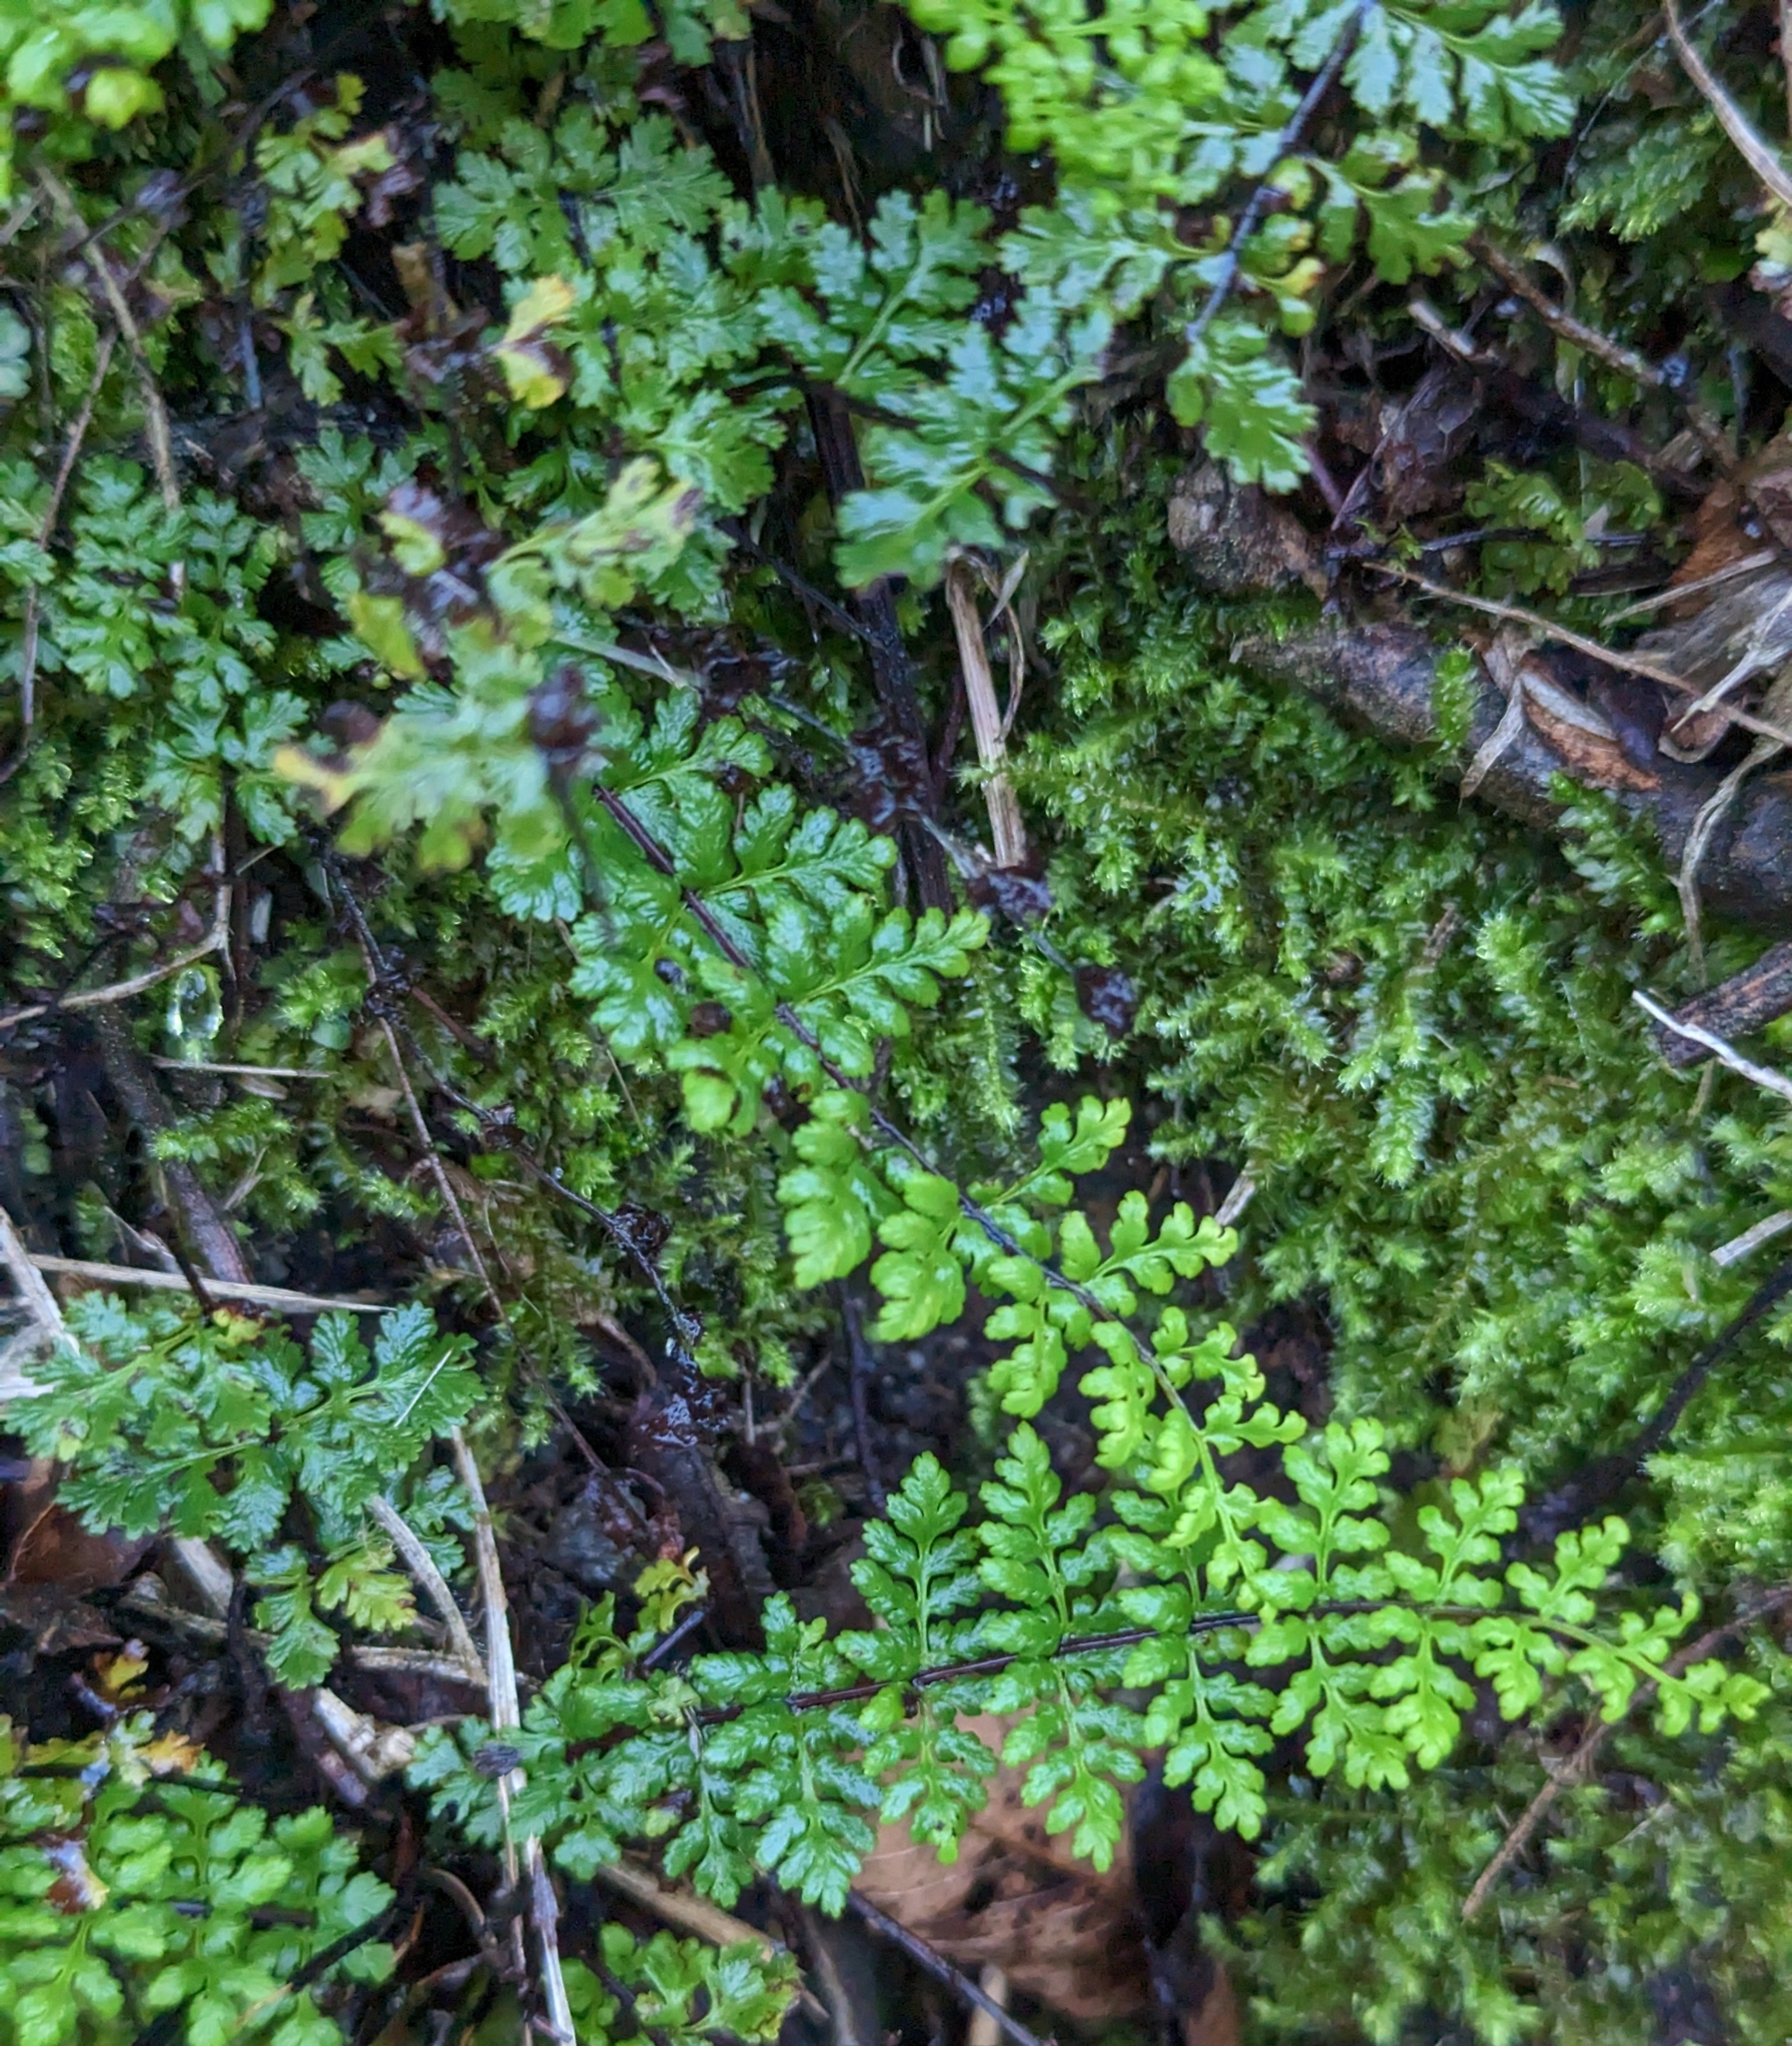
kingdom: Plantae
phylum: Tracheophyta
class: Polypodiopsida
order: Polypodiales
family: Pteridaceae
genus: Oeosporangium
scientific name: Oeosporangium chusanum
